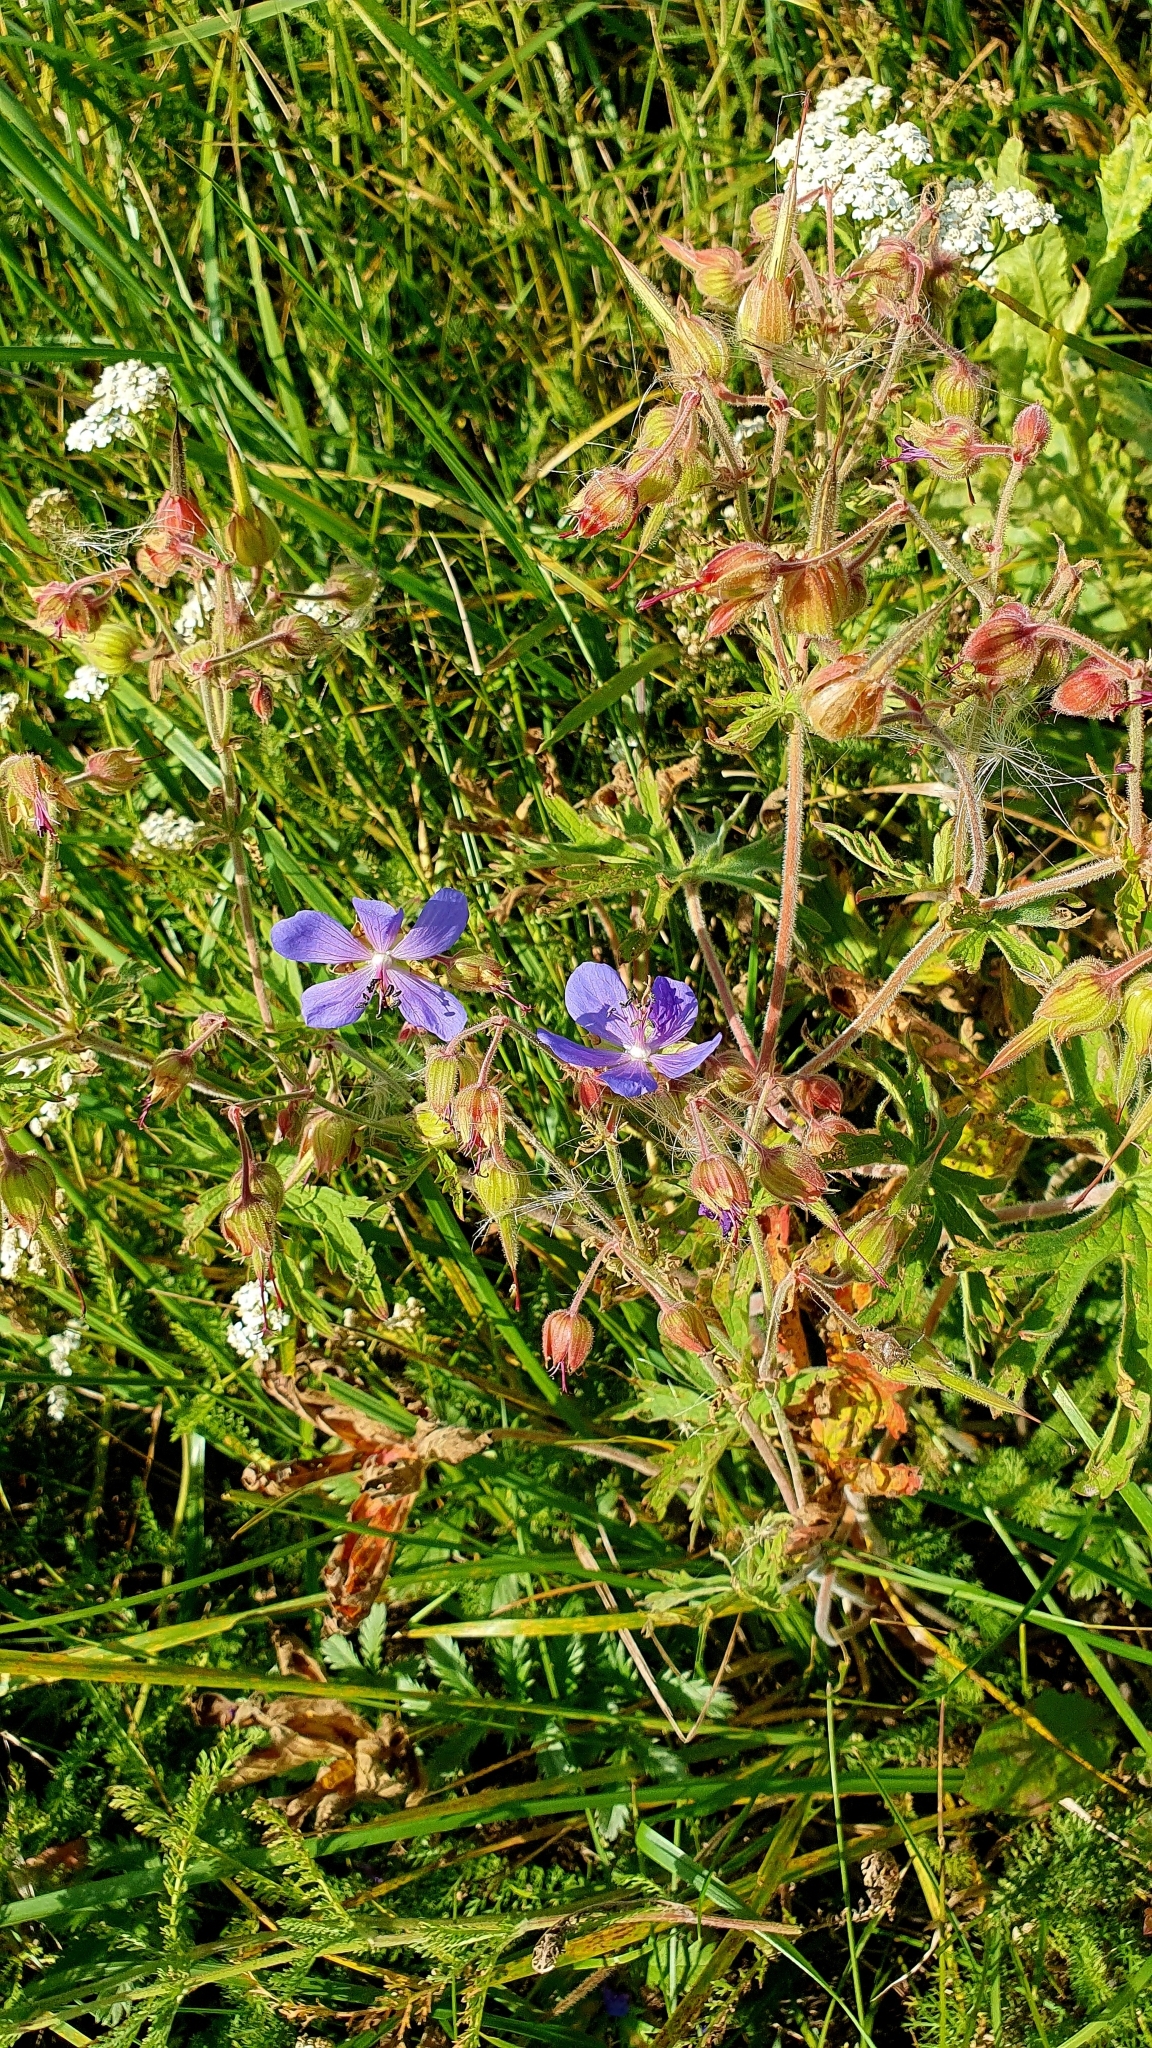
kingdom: Plantae
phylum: Tracheophyta
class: Magnoliopsida
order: Geraniales
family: Geraniaceae
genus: Geranium
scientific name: Geranium pratense
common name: Meadow crane's-bill
